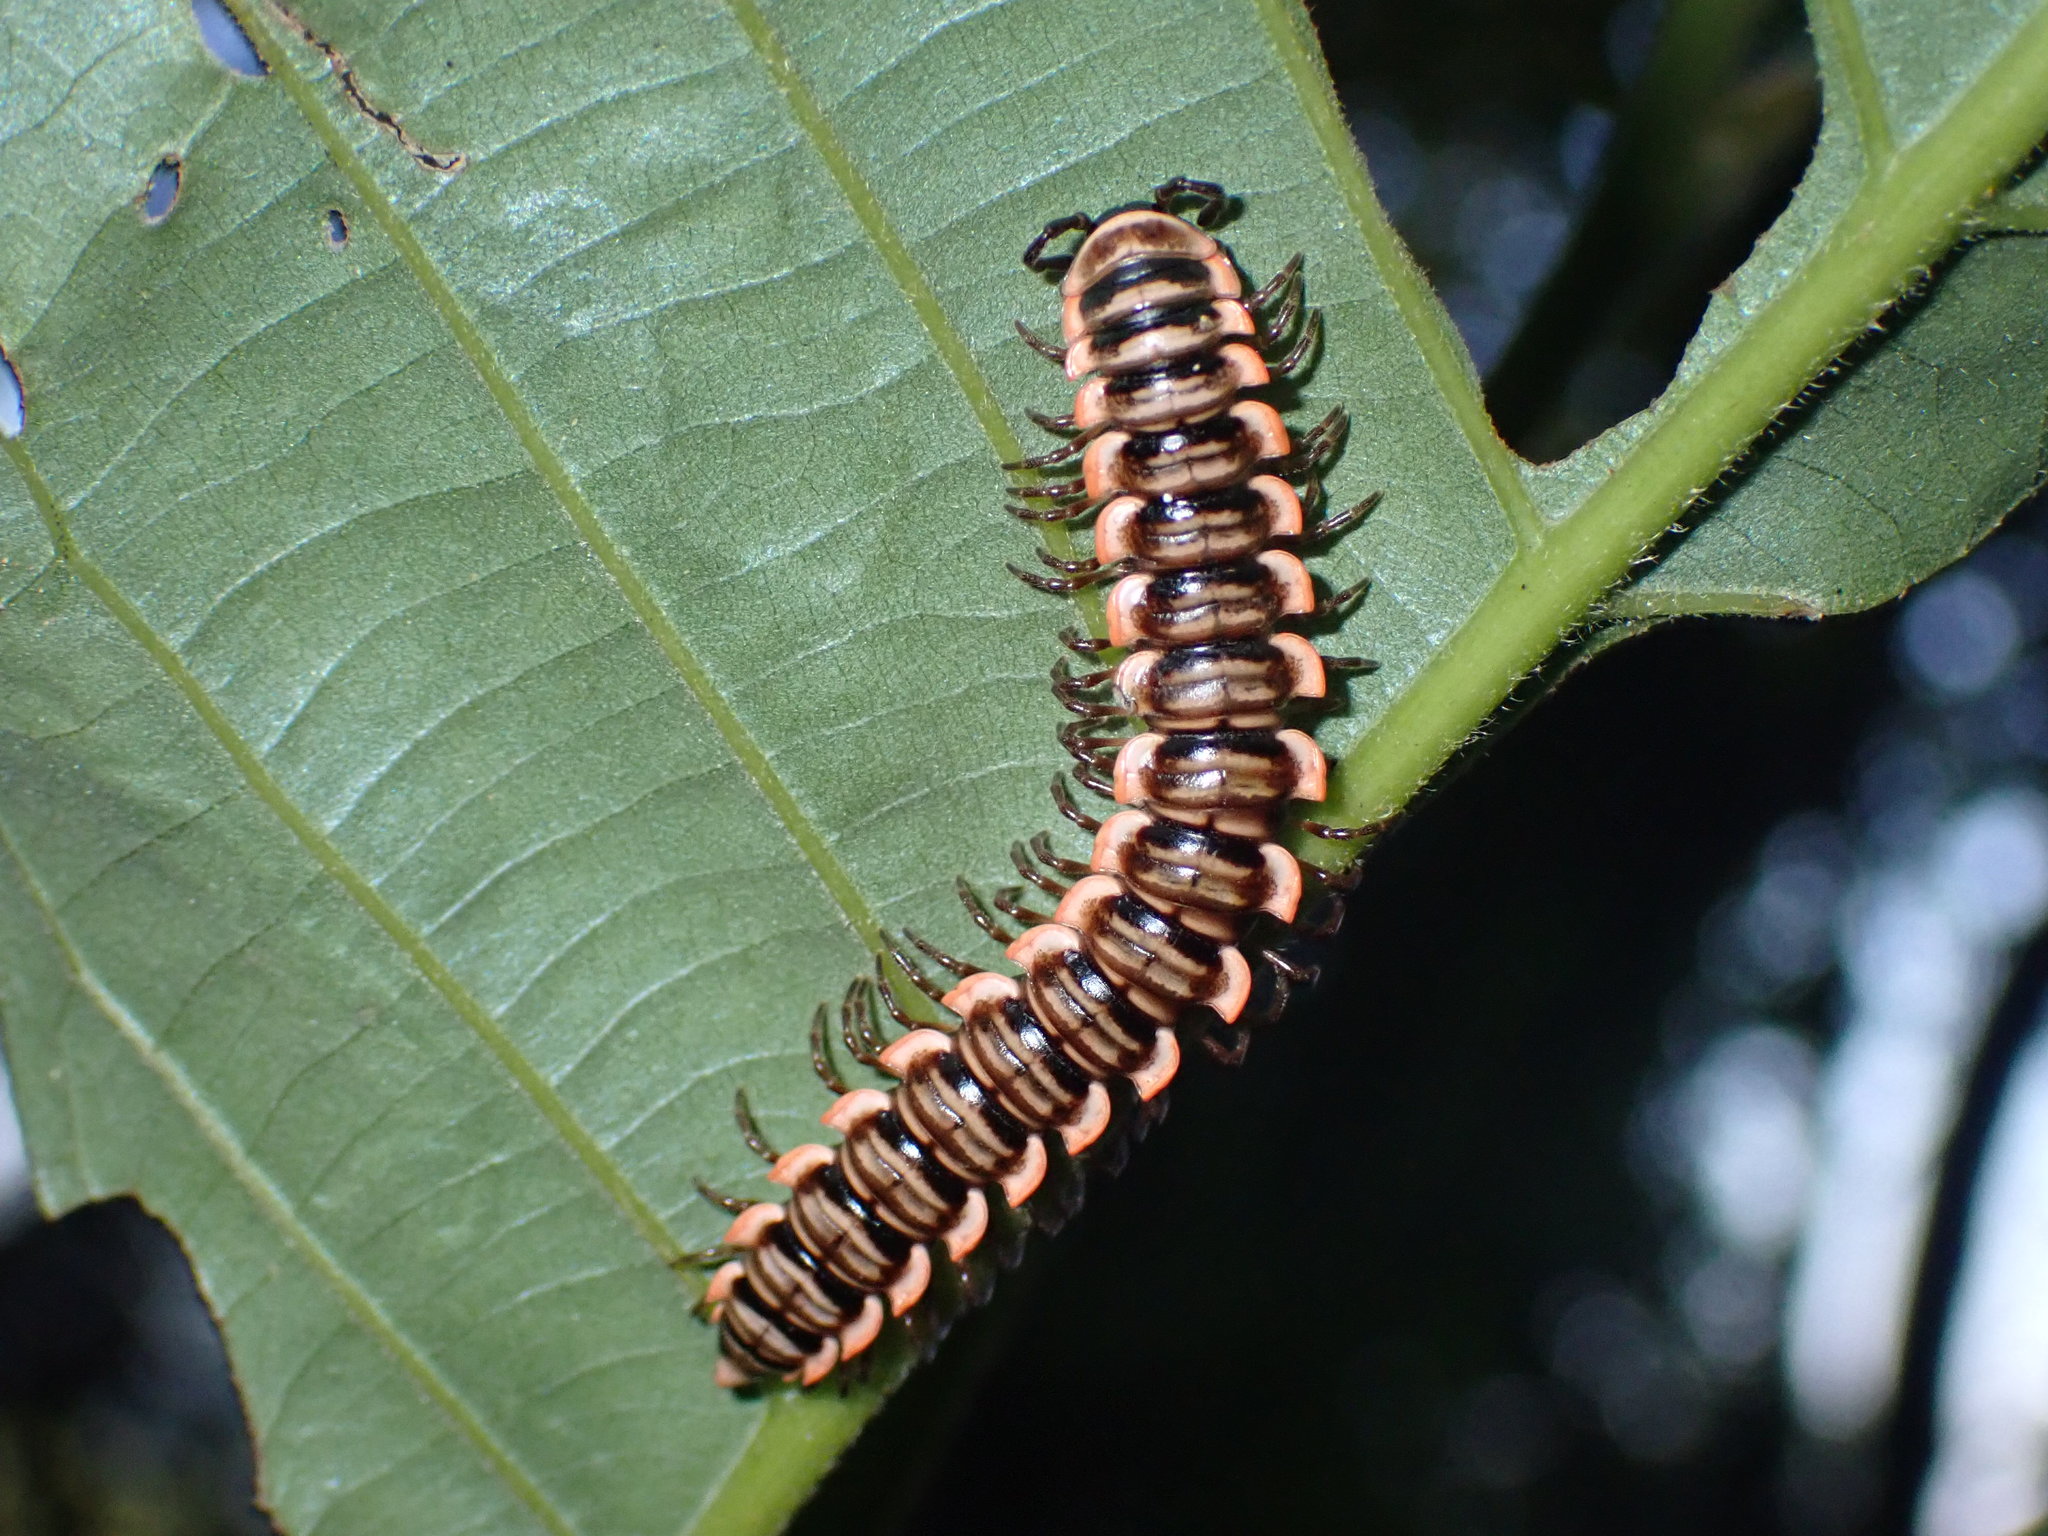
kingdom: Animalia
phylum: Arthropoda
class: Diplopoda
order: Polydesmida
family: Paradoxosomatidae
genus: Antheromorpha
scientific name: Antheromorpha rosea
